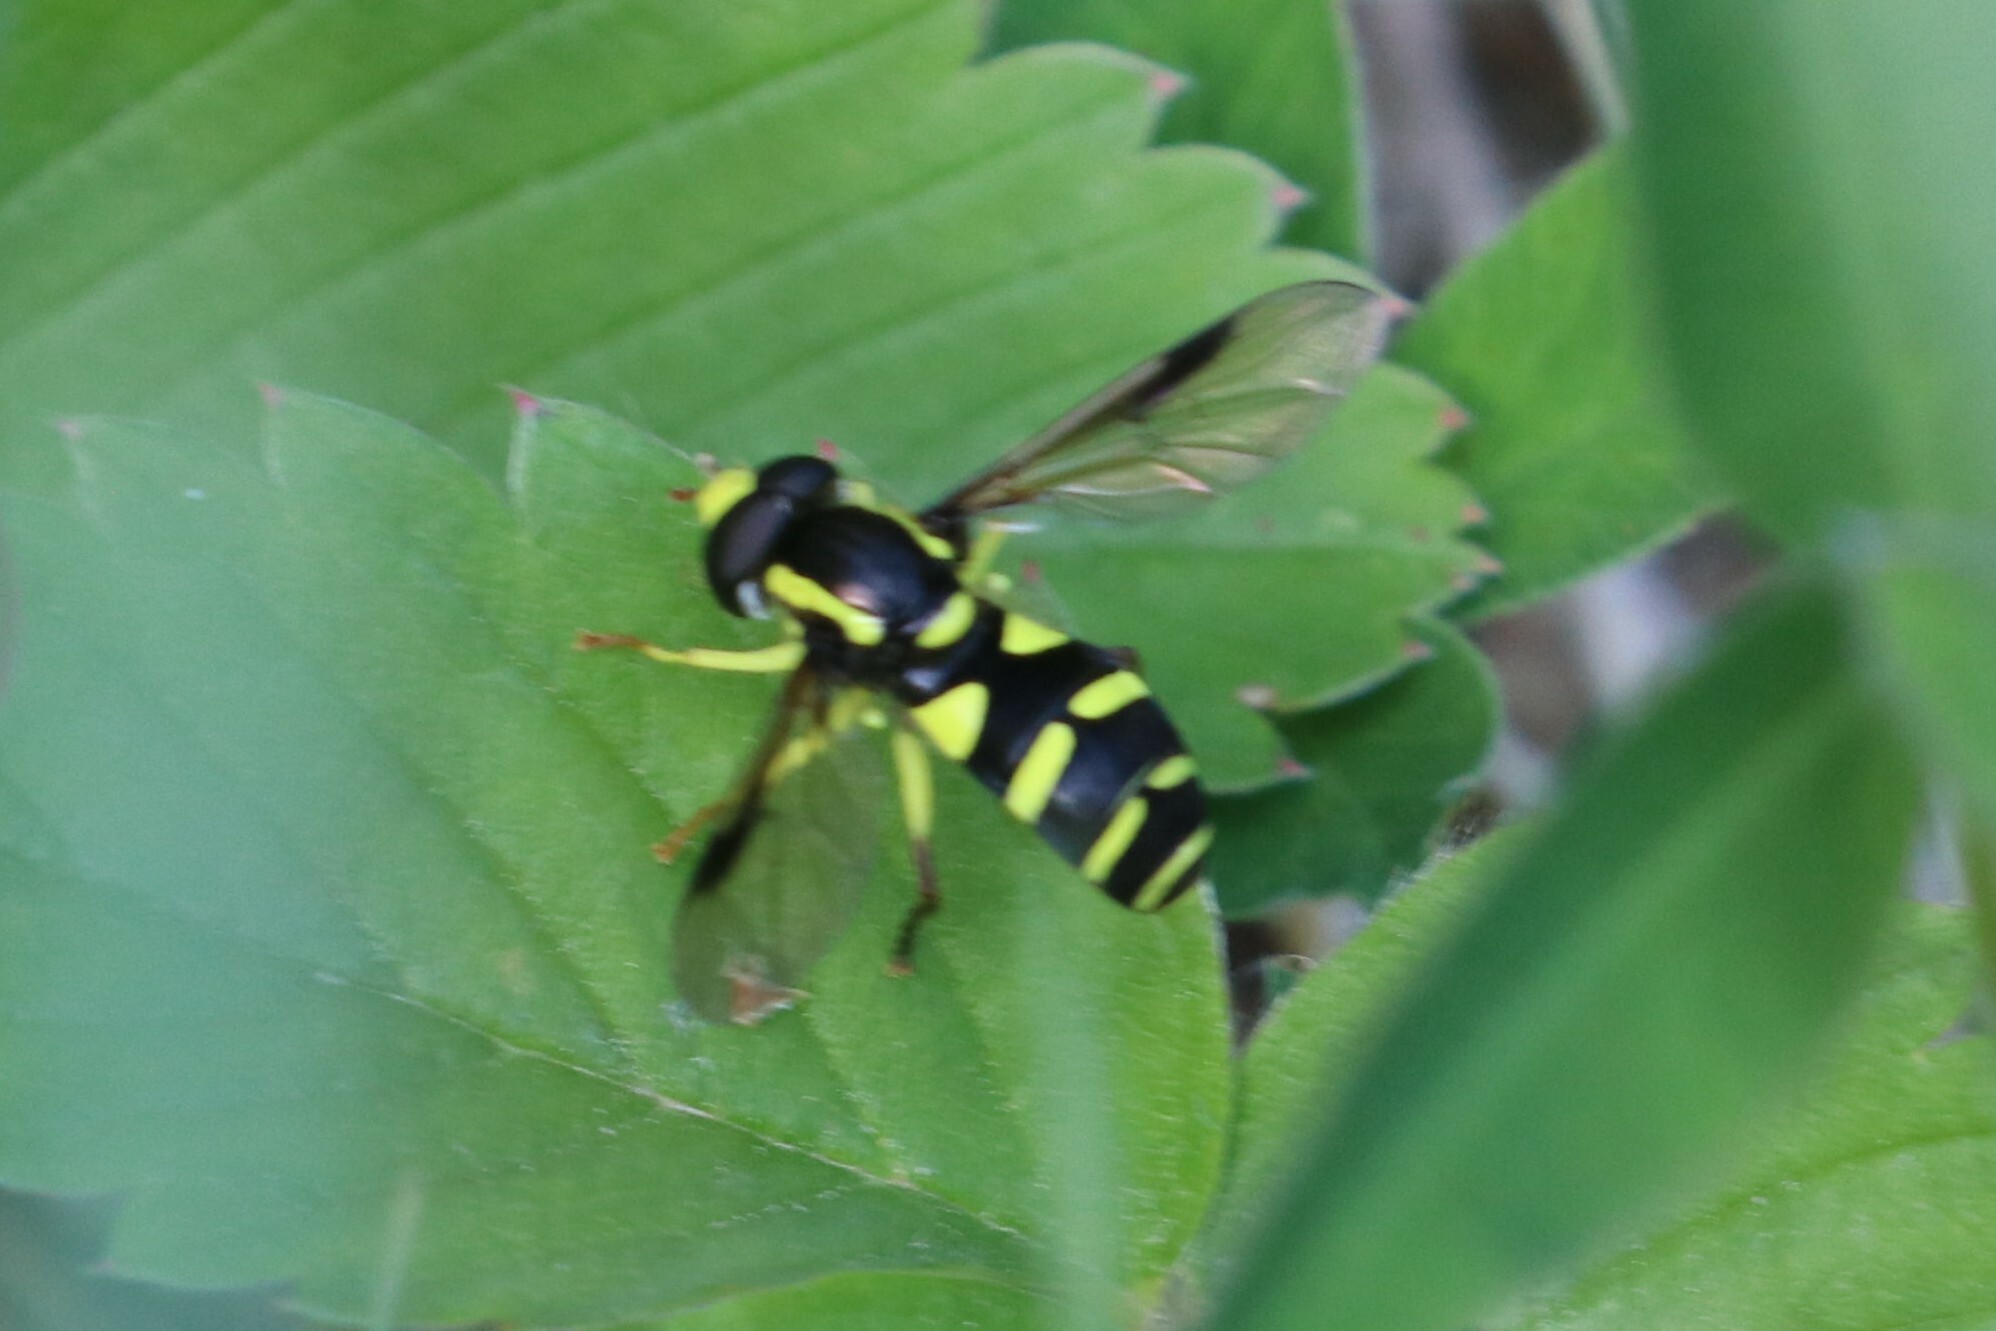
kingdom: Animalia
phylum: Arthropoda
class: Insecta
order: Diptera
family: Syrphidae
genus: Philhelius
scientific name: Philhelius pedissequum
